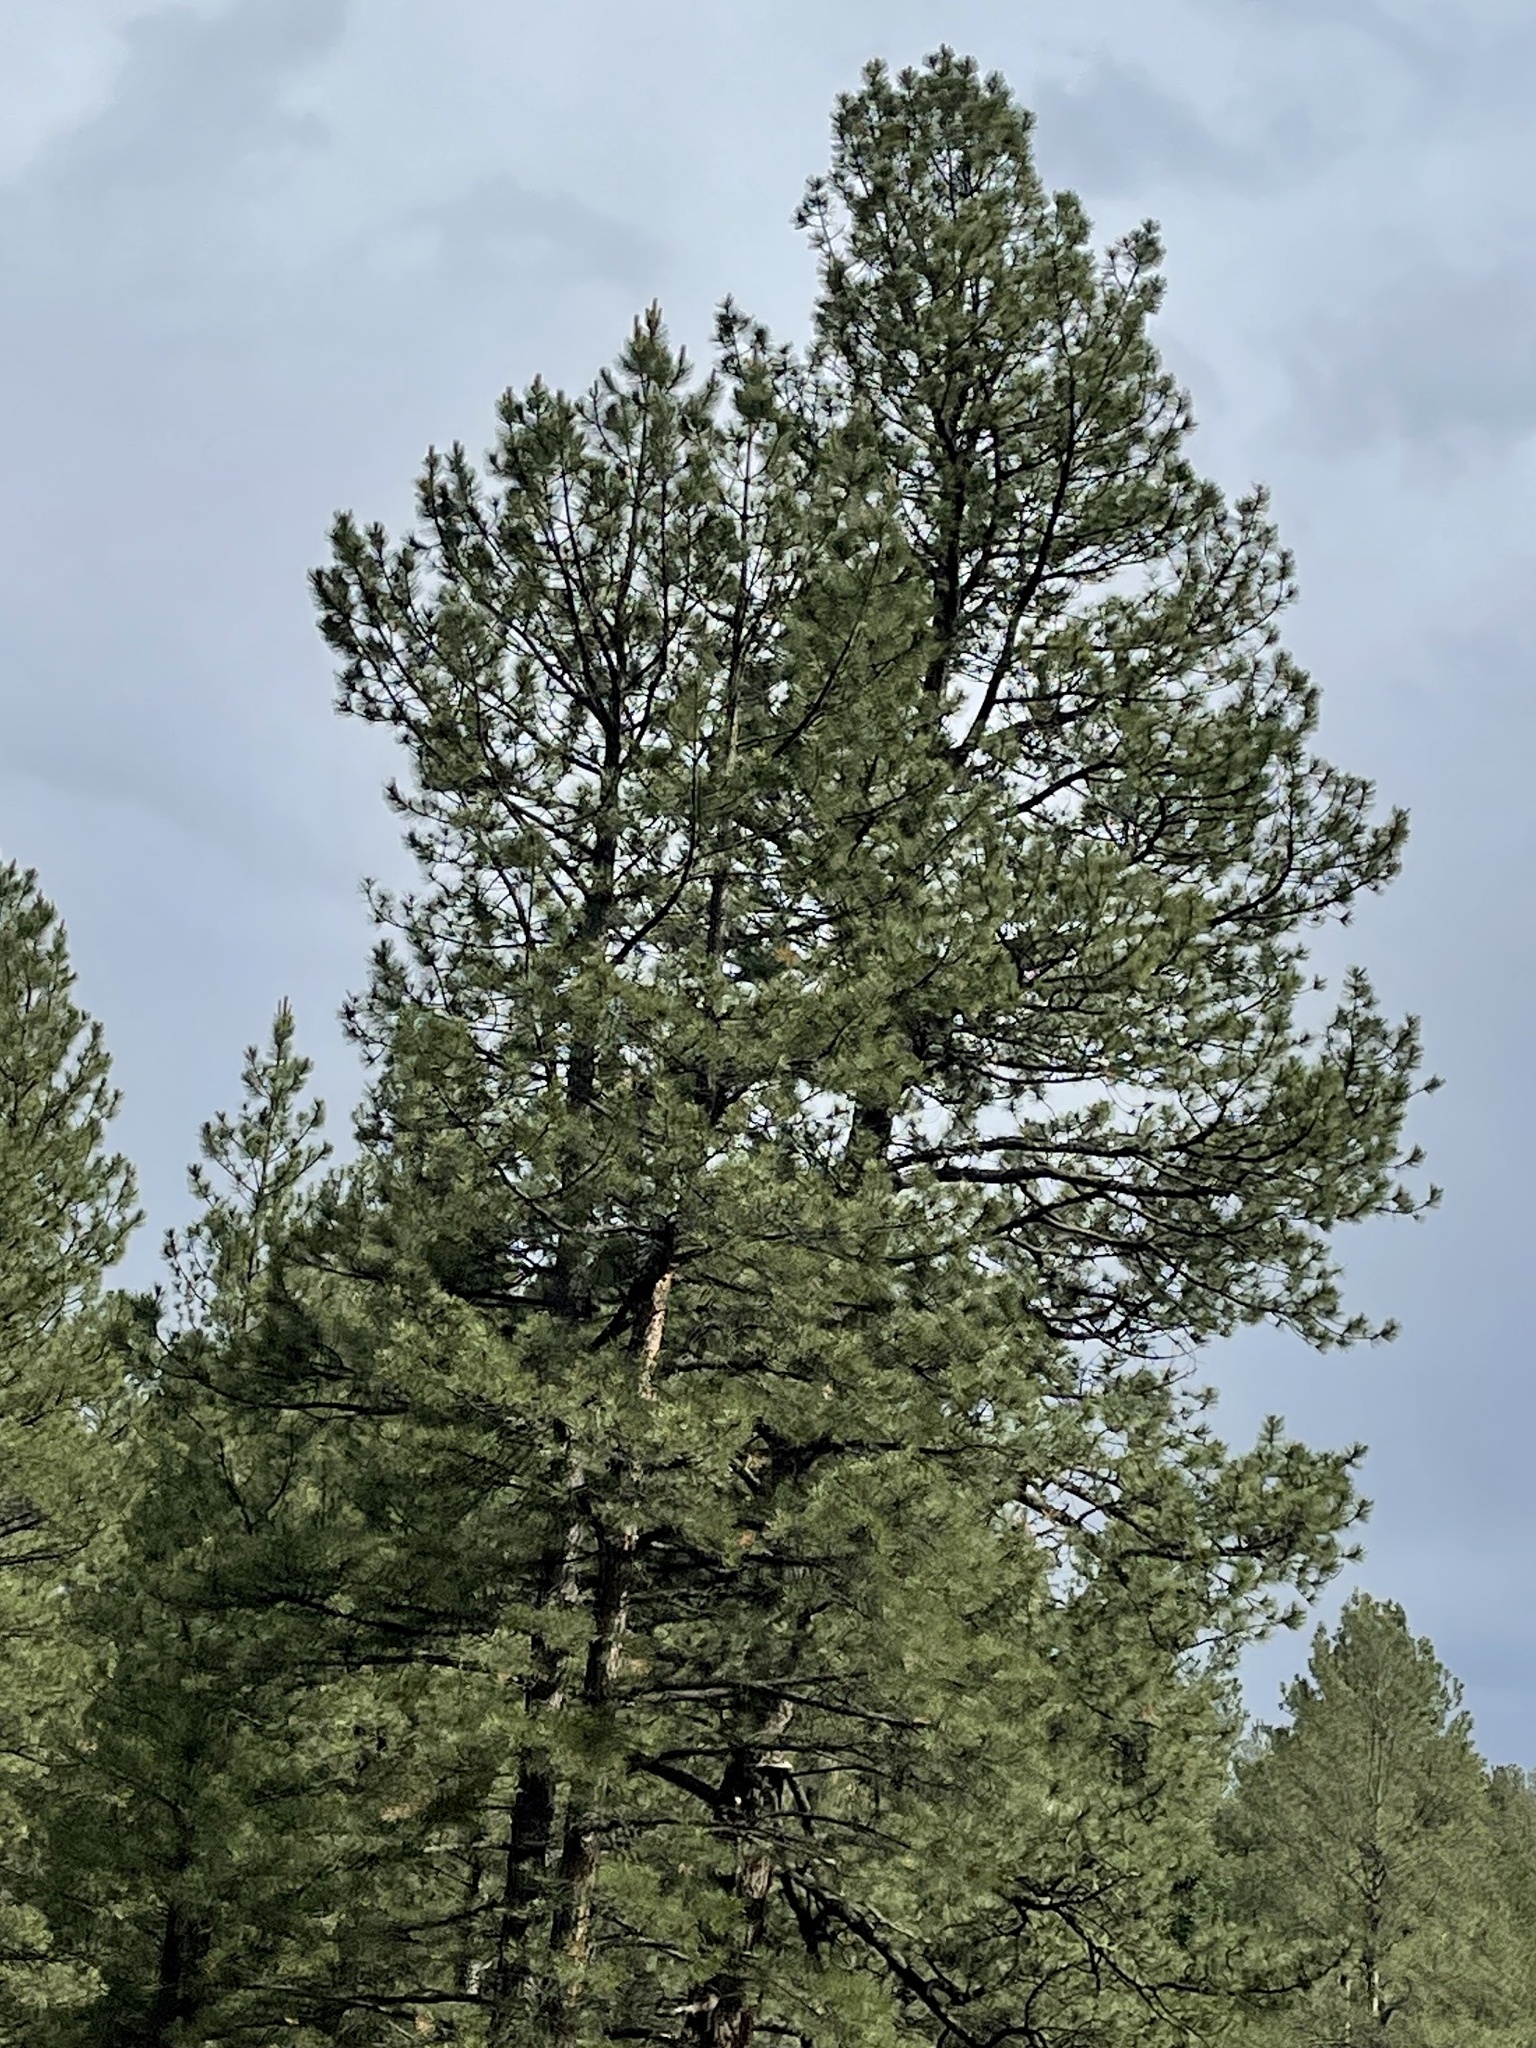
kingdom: Plantae
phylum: Tracheophyta
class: Pinopsida
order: Pinales
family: Pinaceae
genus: Pinus
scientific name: Pinus ponderosa
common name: Western yellow-pine
